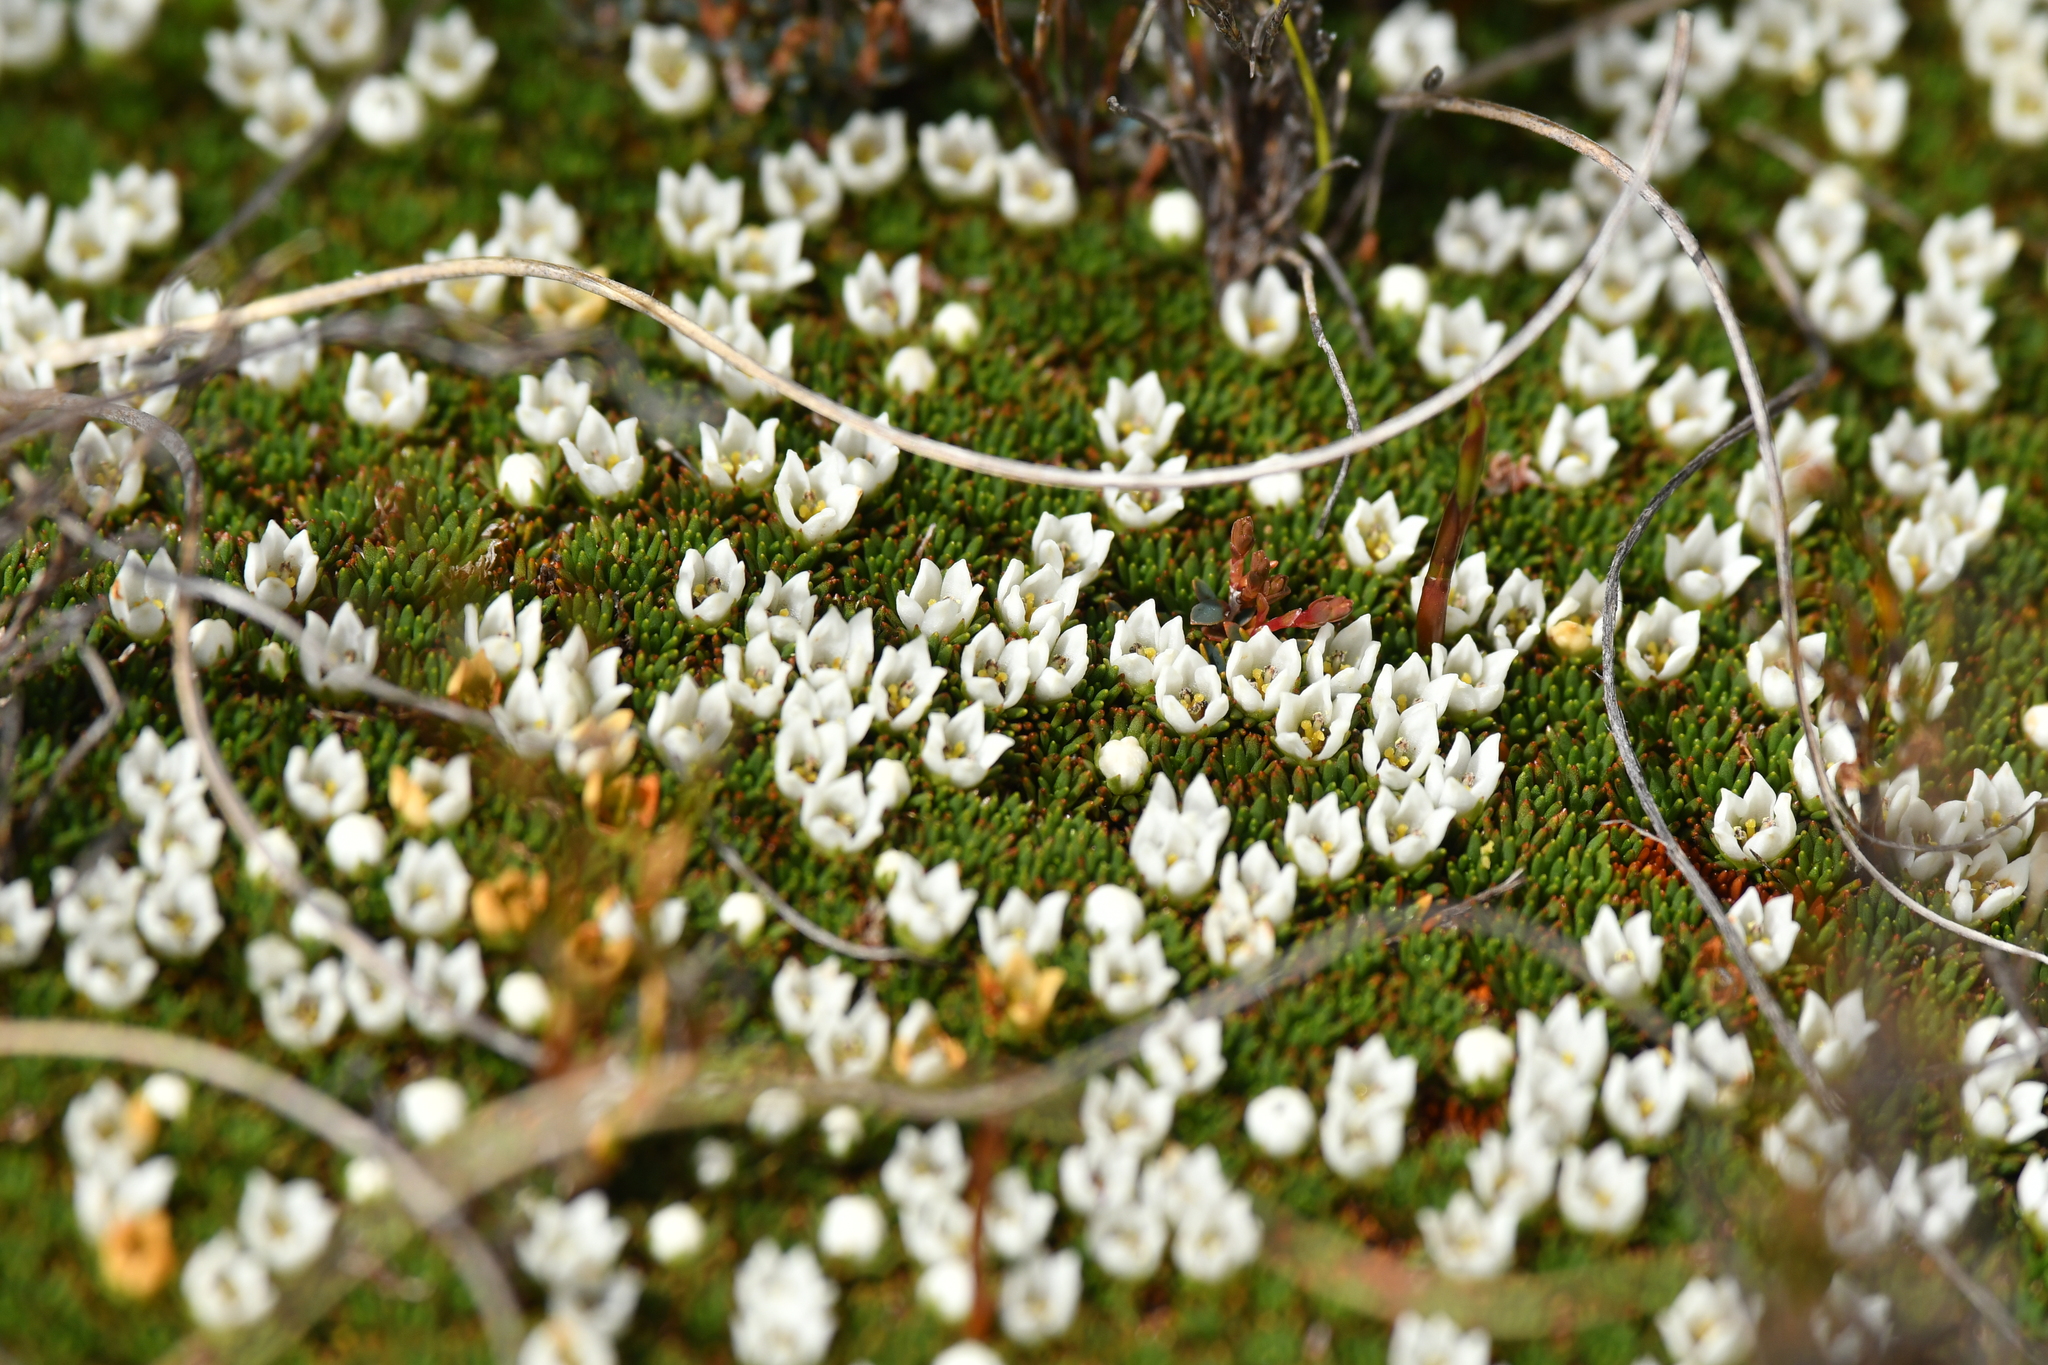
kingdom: Plantae
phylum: Tracheophyta
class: Magnoliopsida
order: Asterales
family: Stylidiaceae
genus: Donatia
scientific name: Donatia novae-zelandiae
